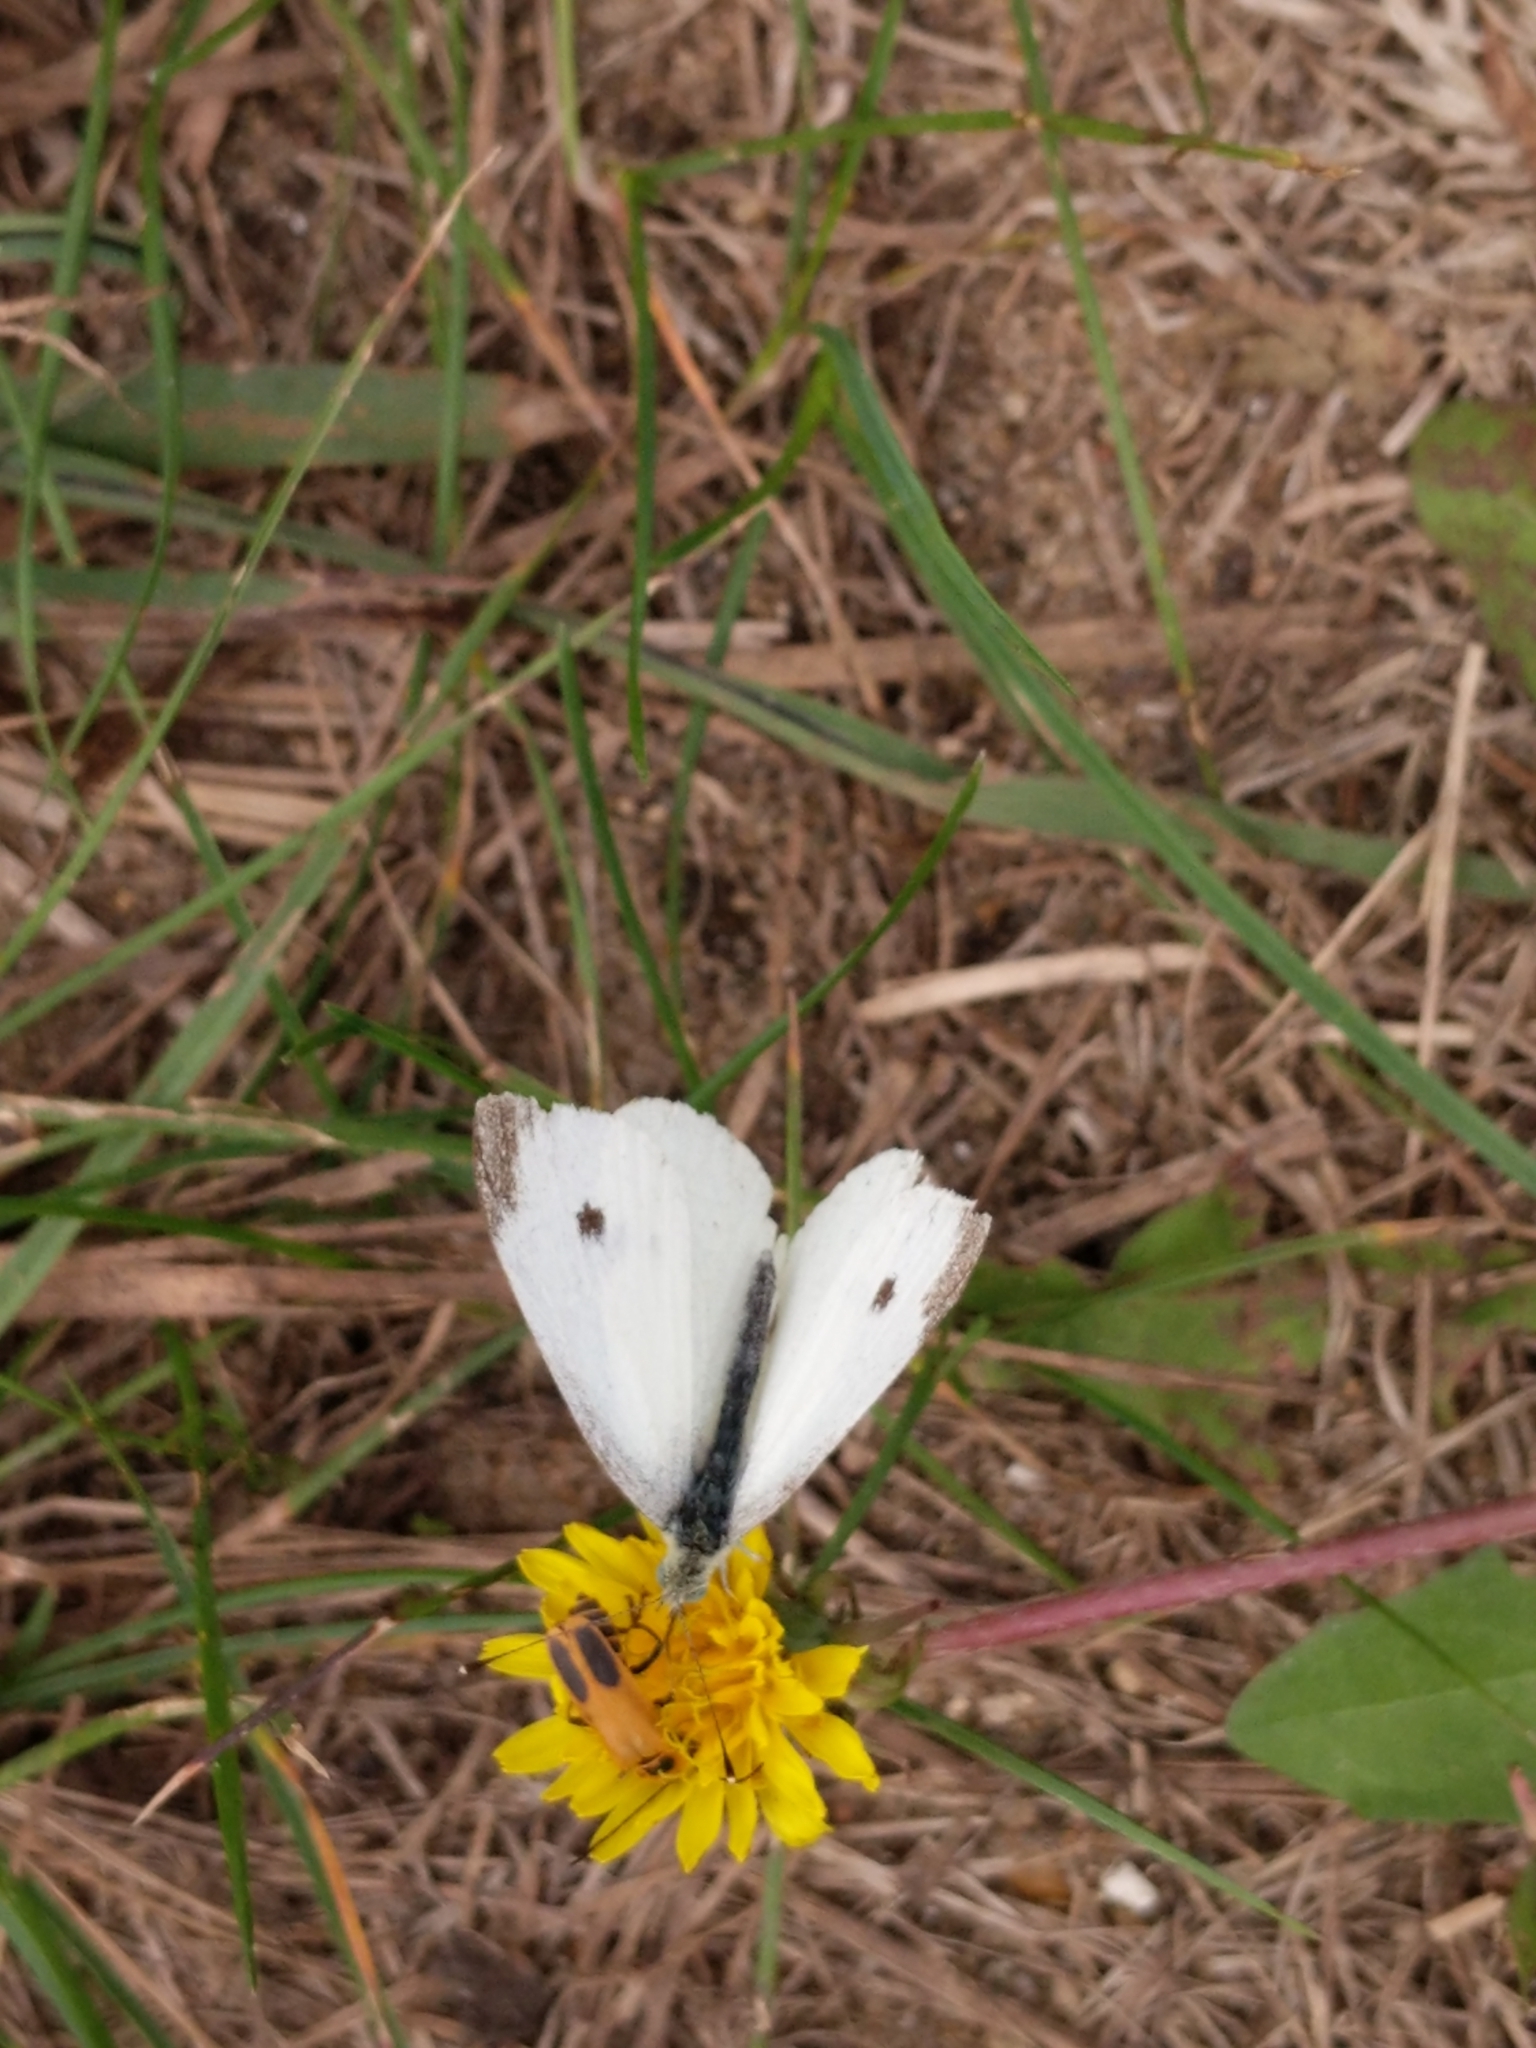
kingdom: Animalia
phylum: Arthropoda
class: Insecta
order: Lepidoptera
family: Pieridae
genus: Pieris
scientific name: Pieris rapae
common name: Small white
